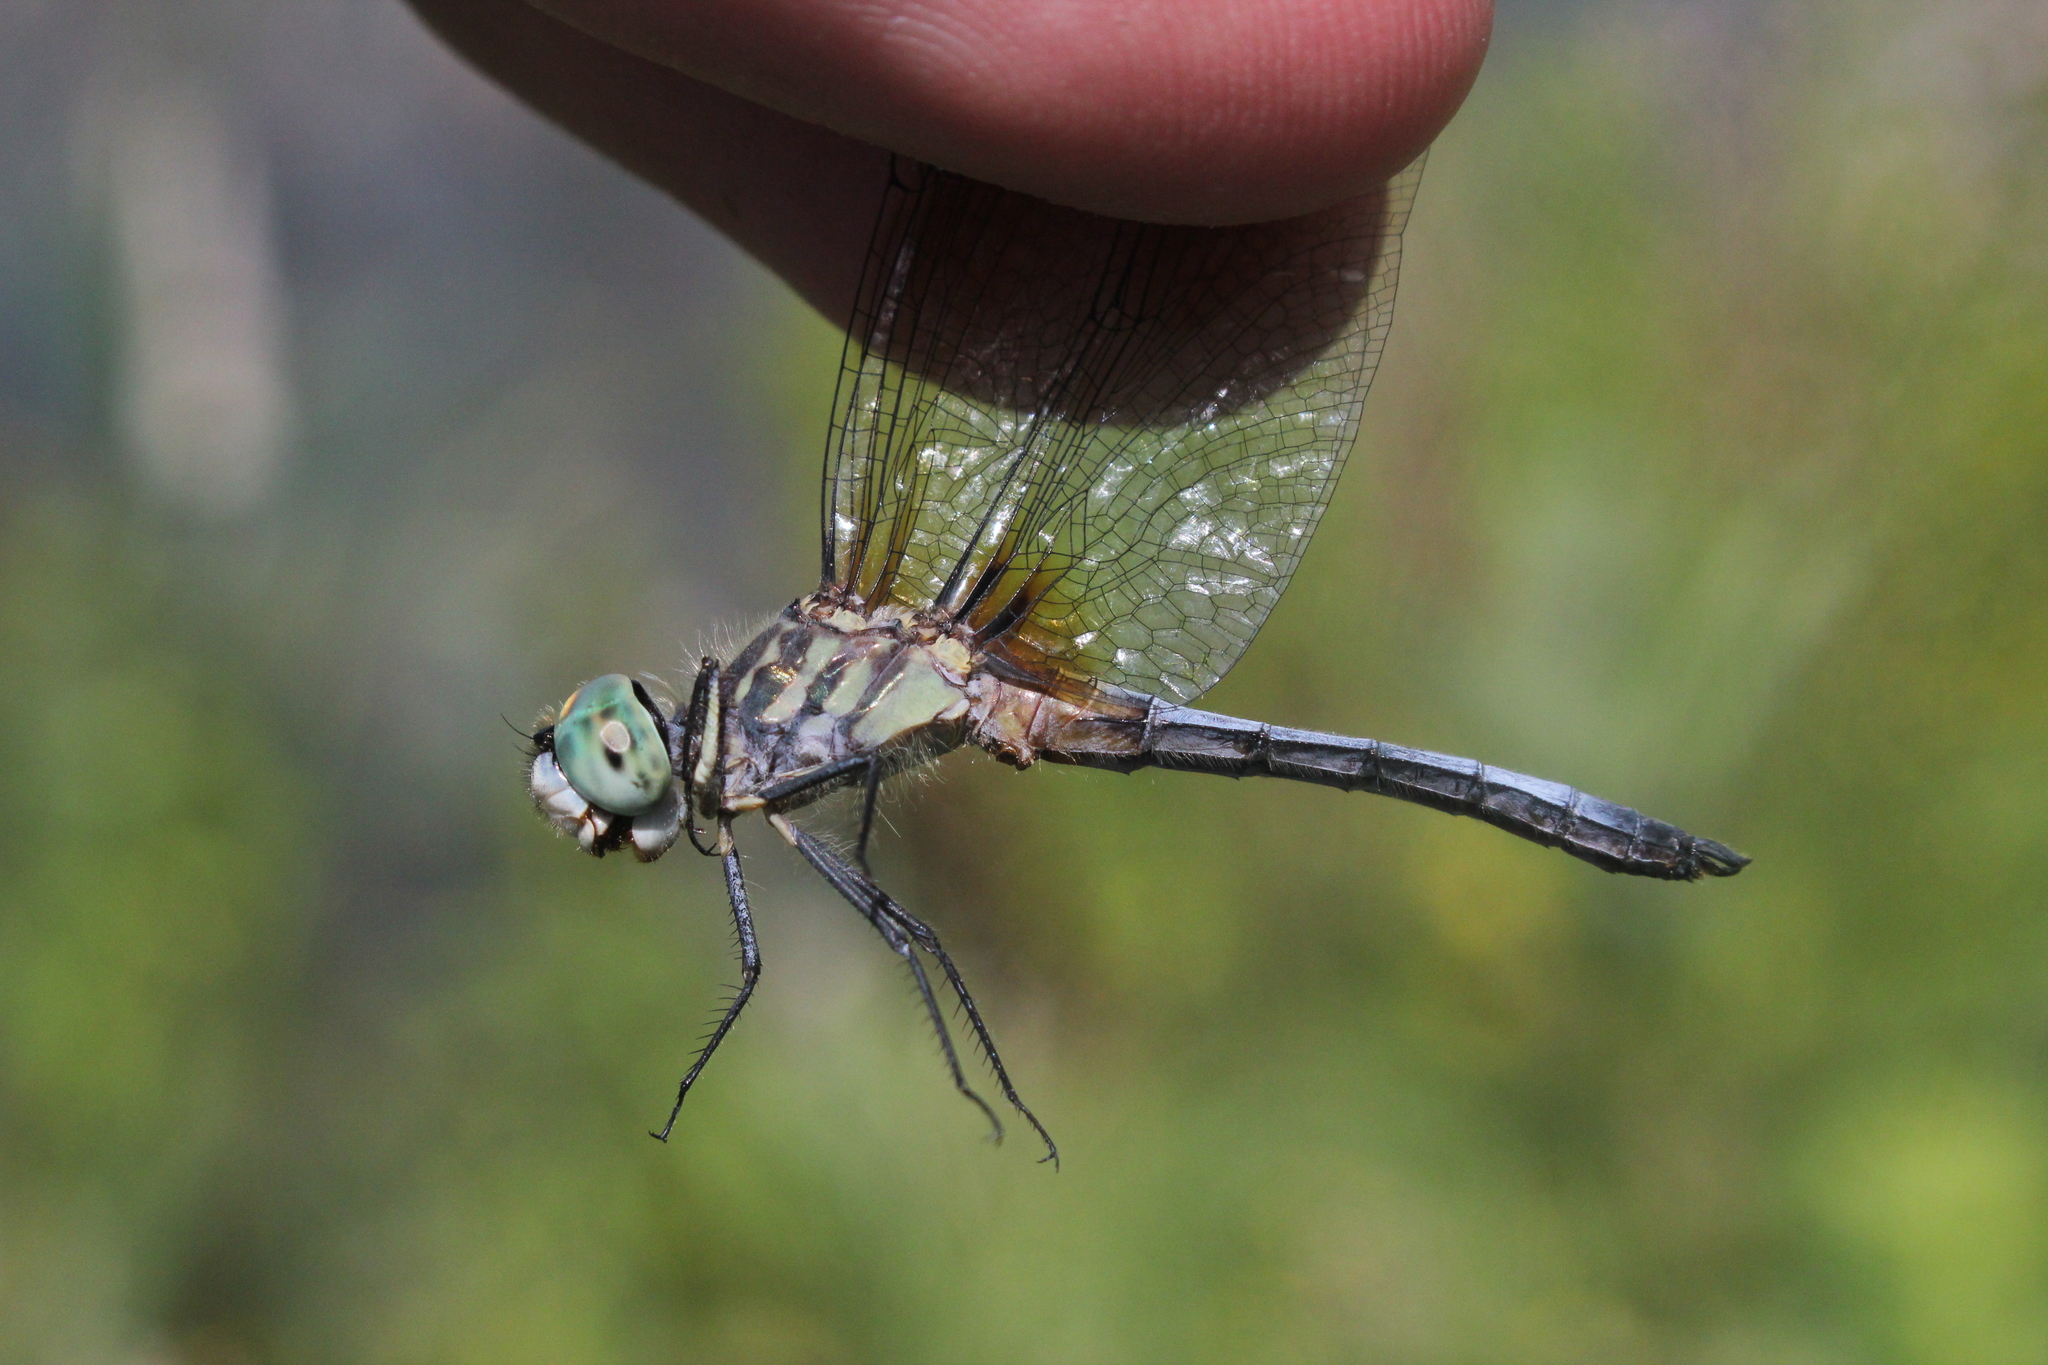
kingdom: Animalia
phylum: Arthropoda
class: Insecta
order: Odonata
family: Libellulidae
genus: Pachydiplax
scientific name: Pachydiplax longipennis
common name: Blue dasher
